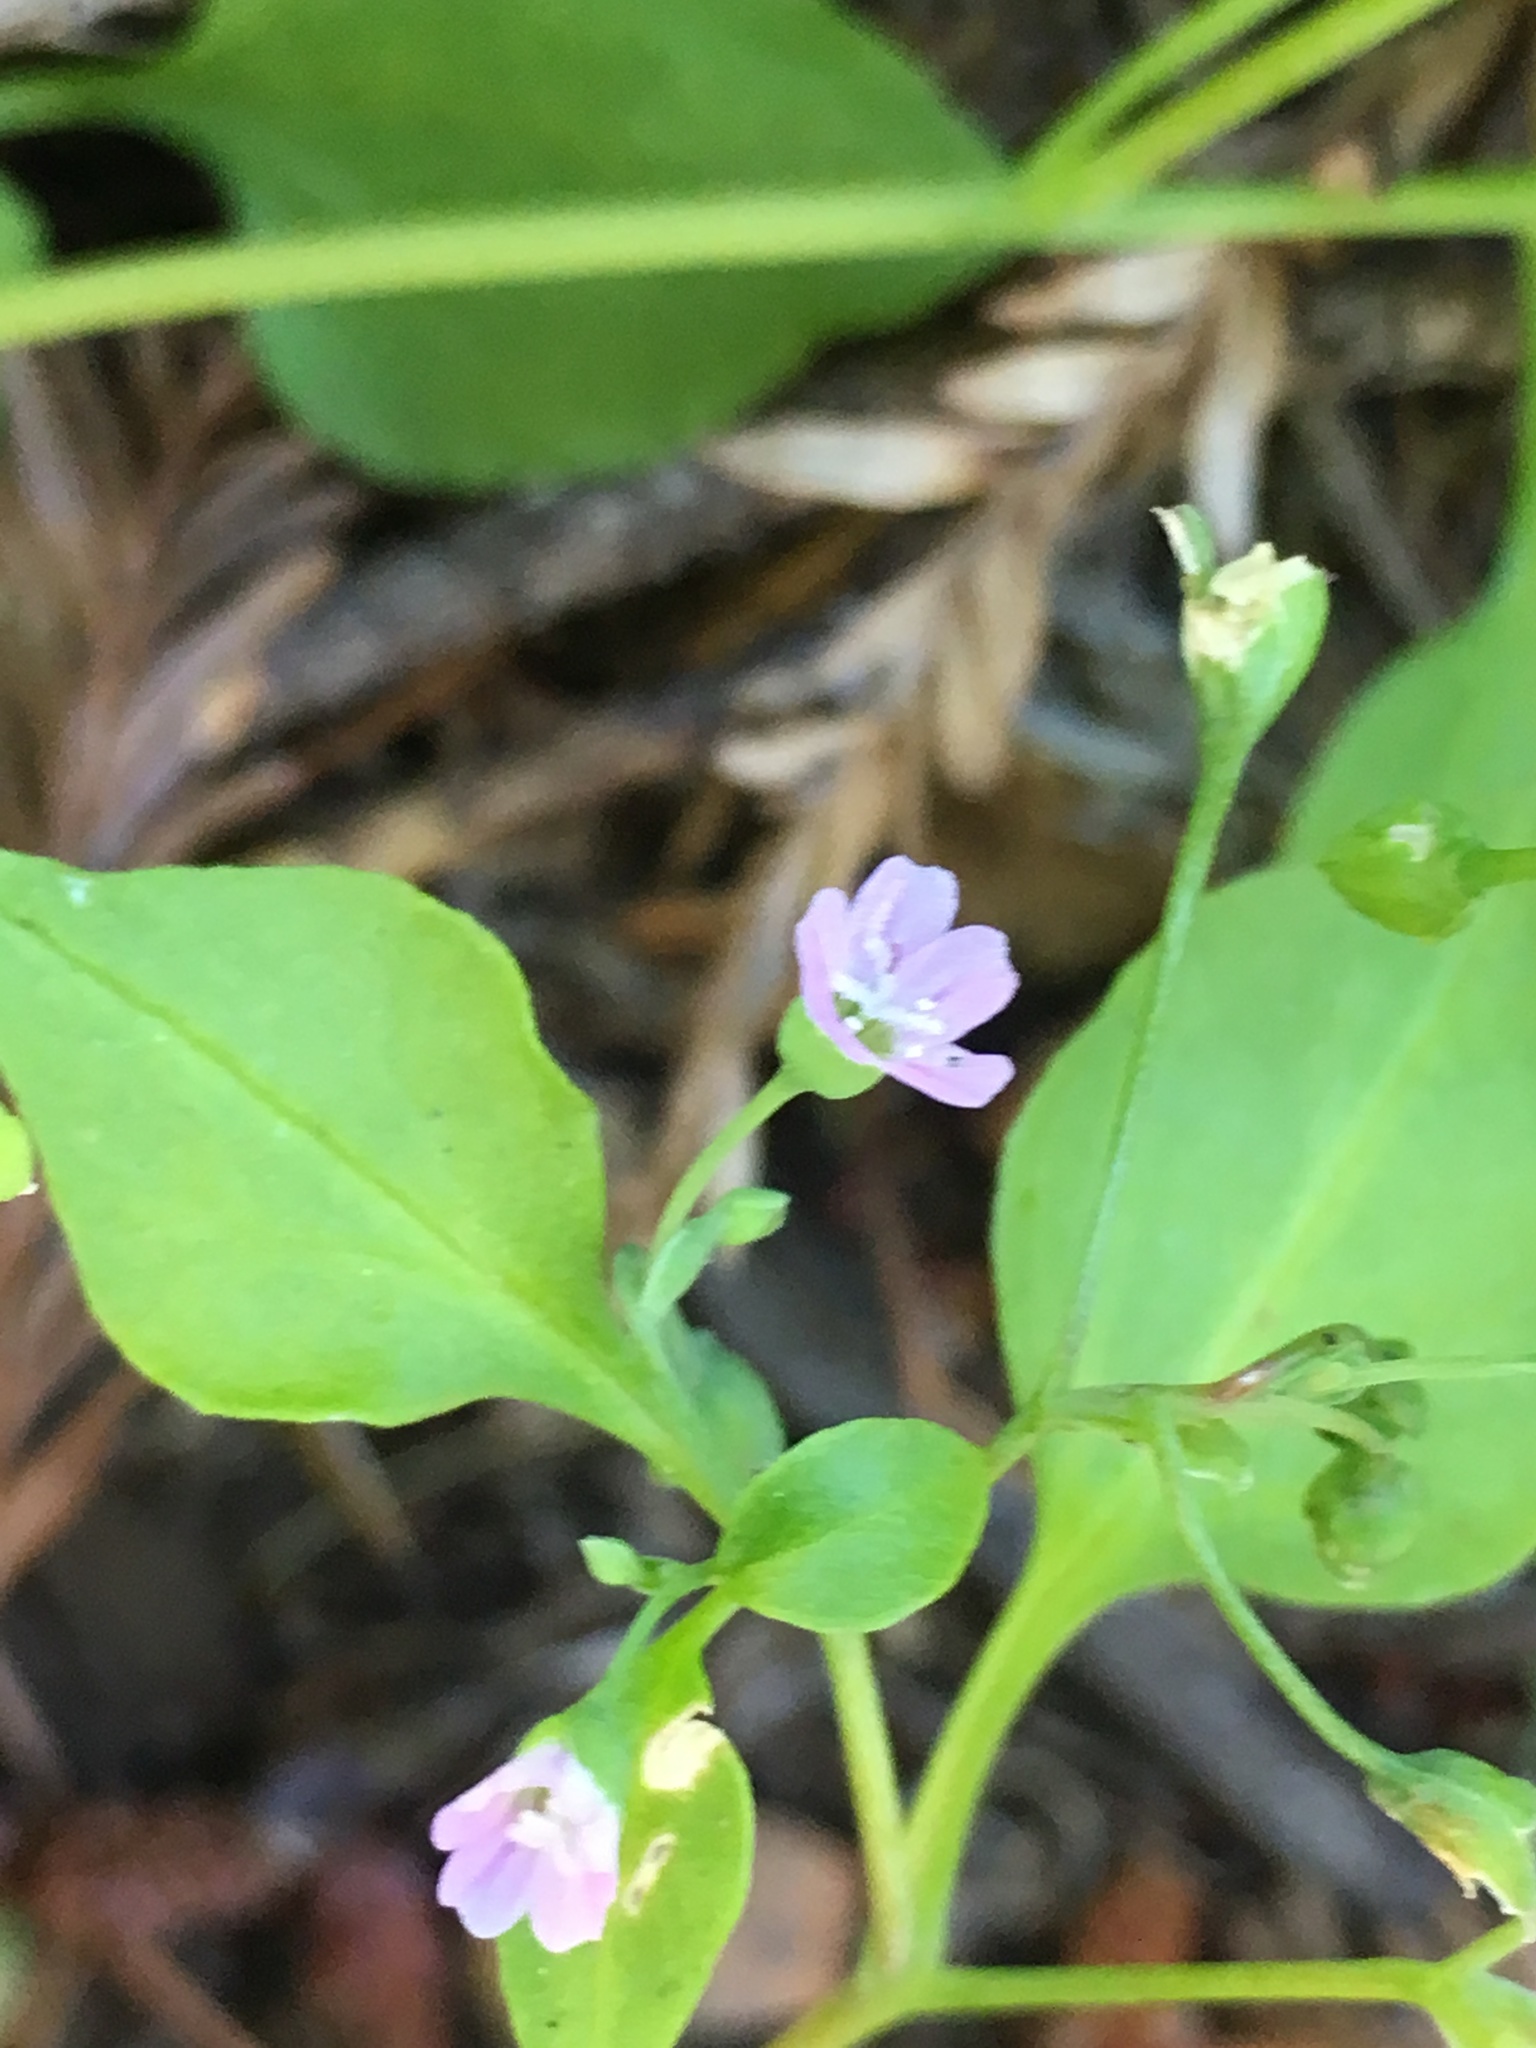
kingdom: Plantae
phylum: Tracheophyta
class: Magnoliopsida
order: Caryophyllales
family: Montiaceae
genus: Montia
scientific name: Montia diffusa
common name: Branching montia
